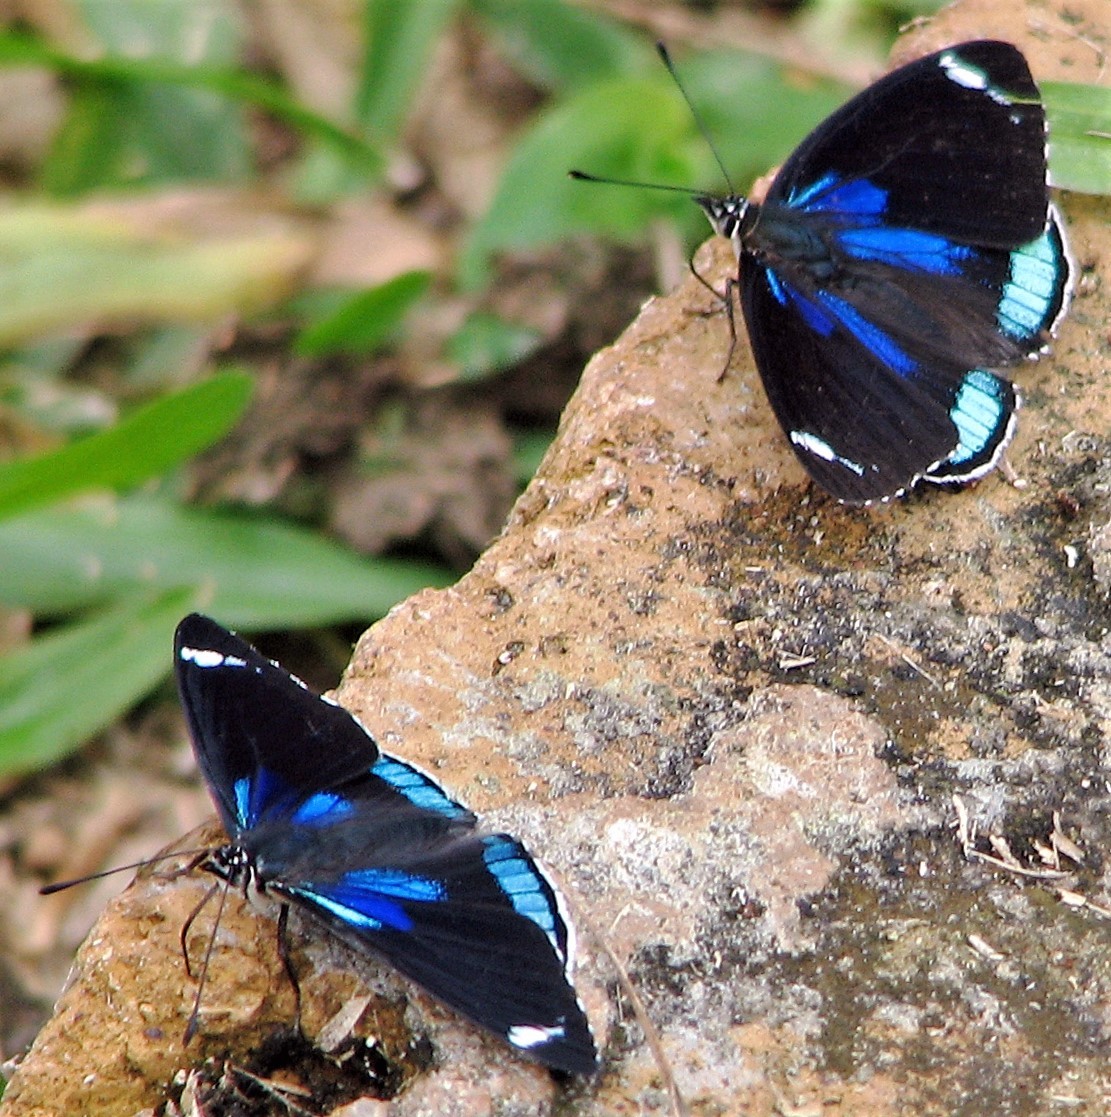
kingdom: Animalia
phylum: Arthropoda
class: Insecta
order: Lepidoptera
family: Nymphalidae
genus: Diaethria
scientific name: Diaethria candrena
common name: Number eighty
